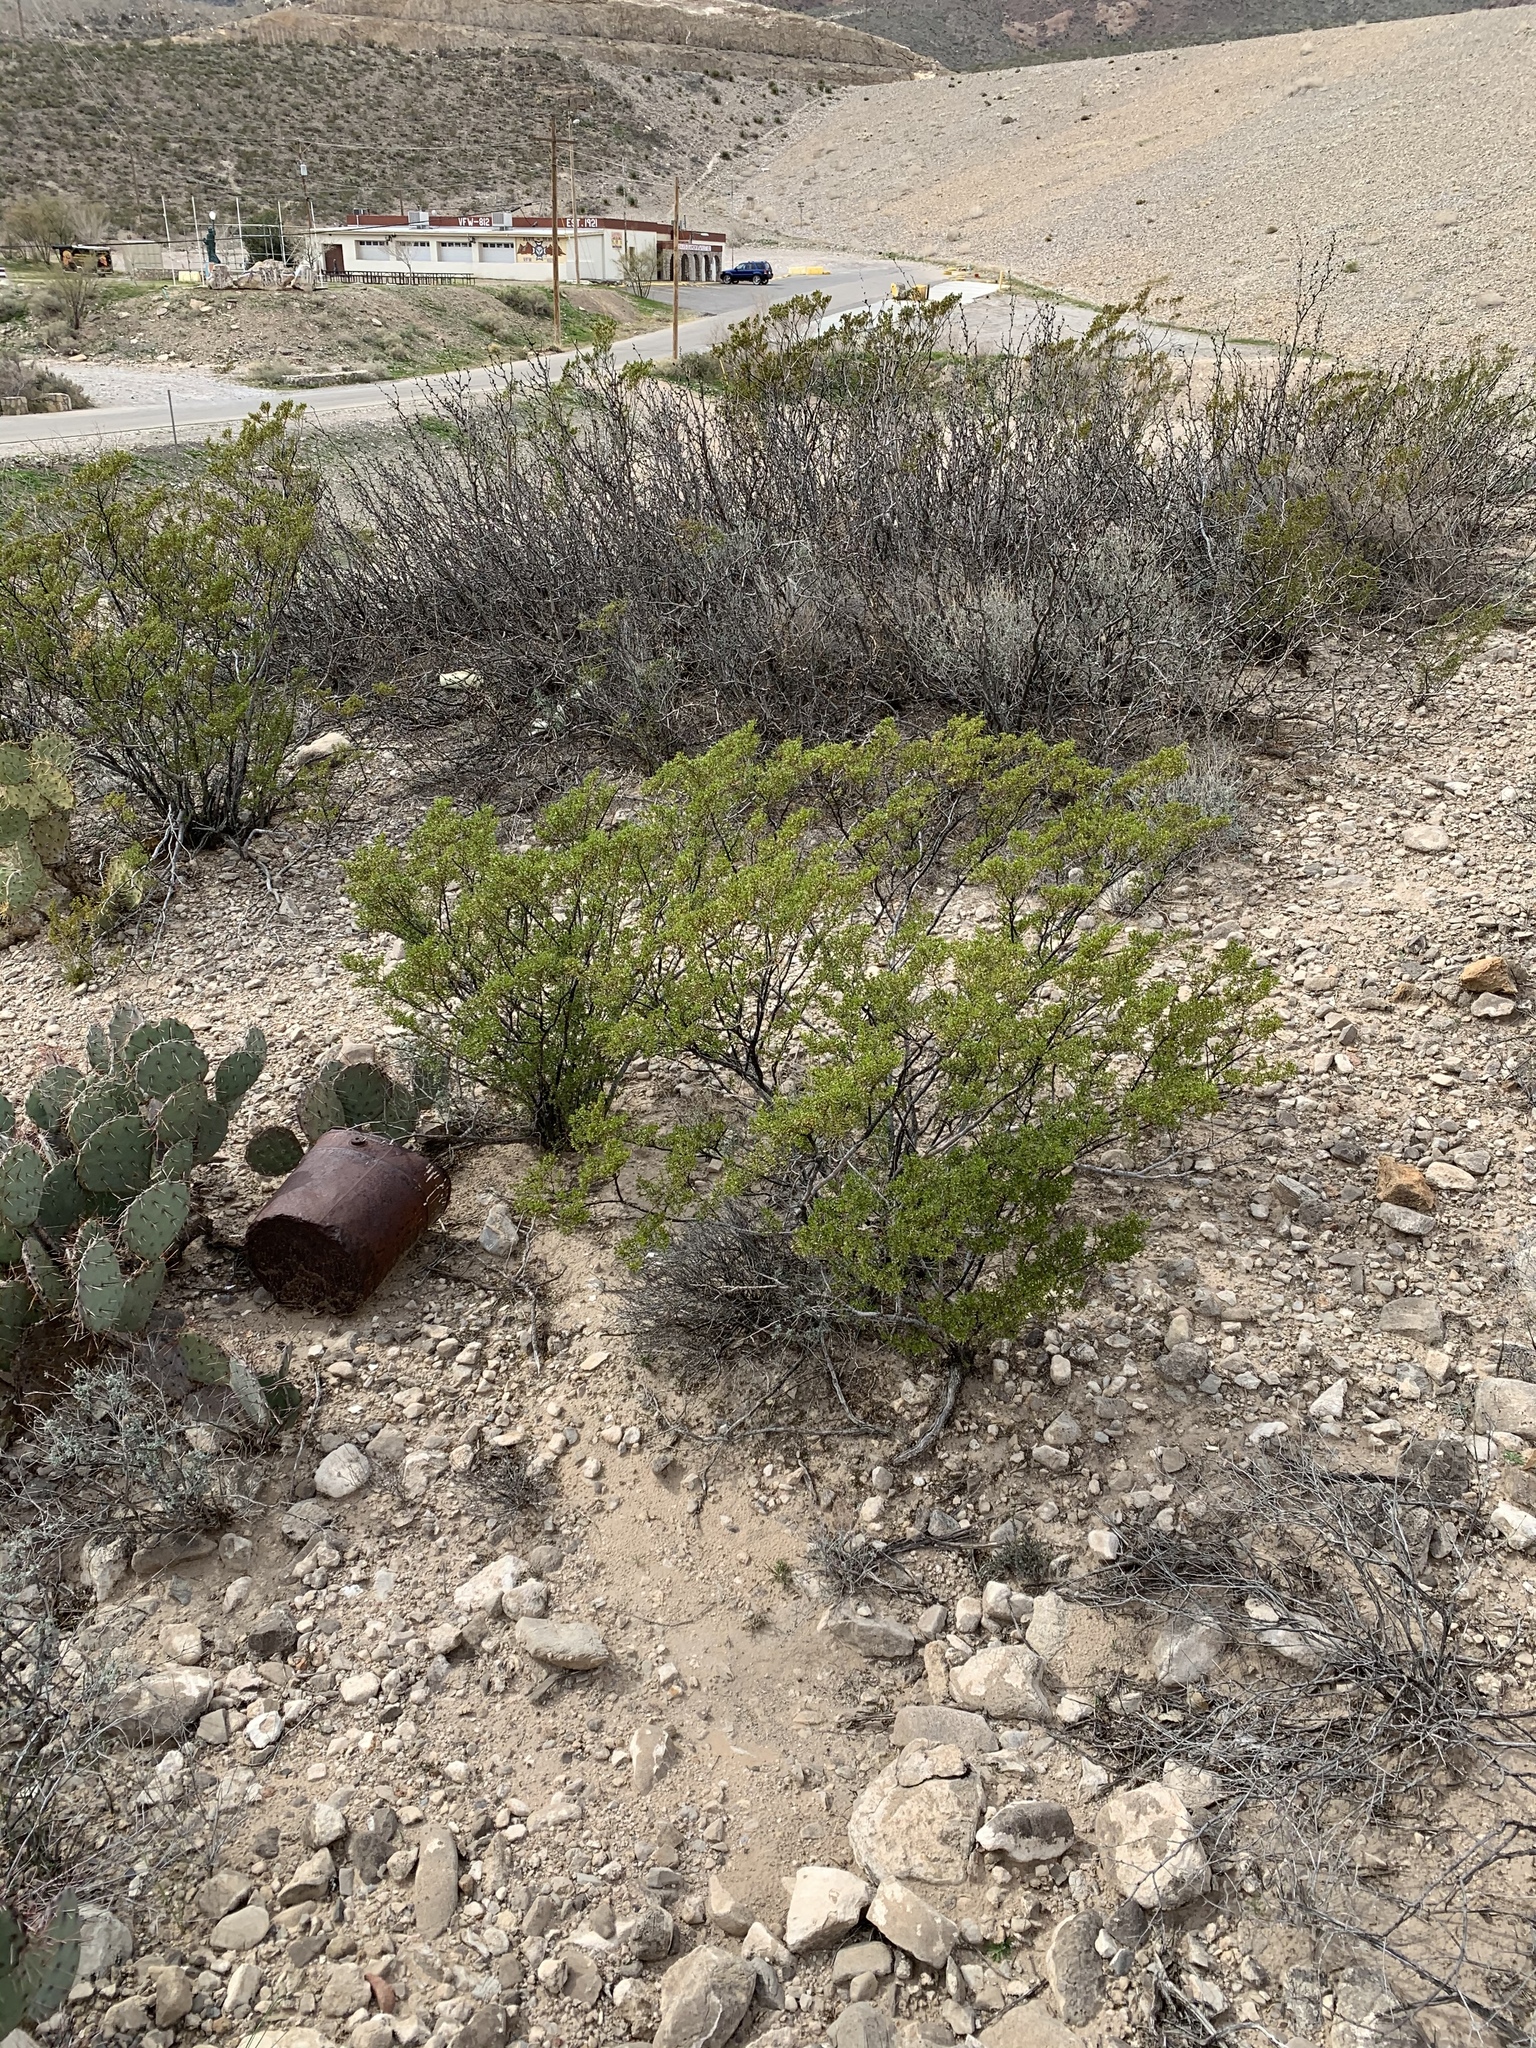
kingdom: Plantae
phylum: Tracheophyta
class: Magnoliopsida
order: Zygophyllales
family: Zygophyllaceae
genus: Larrea
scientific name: Larrea tridentata
